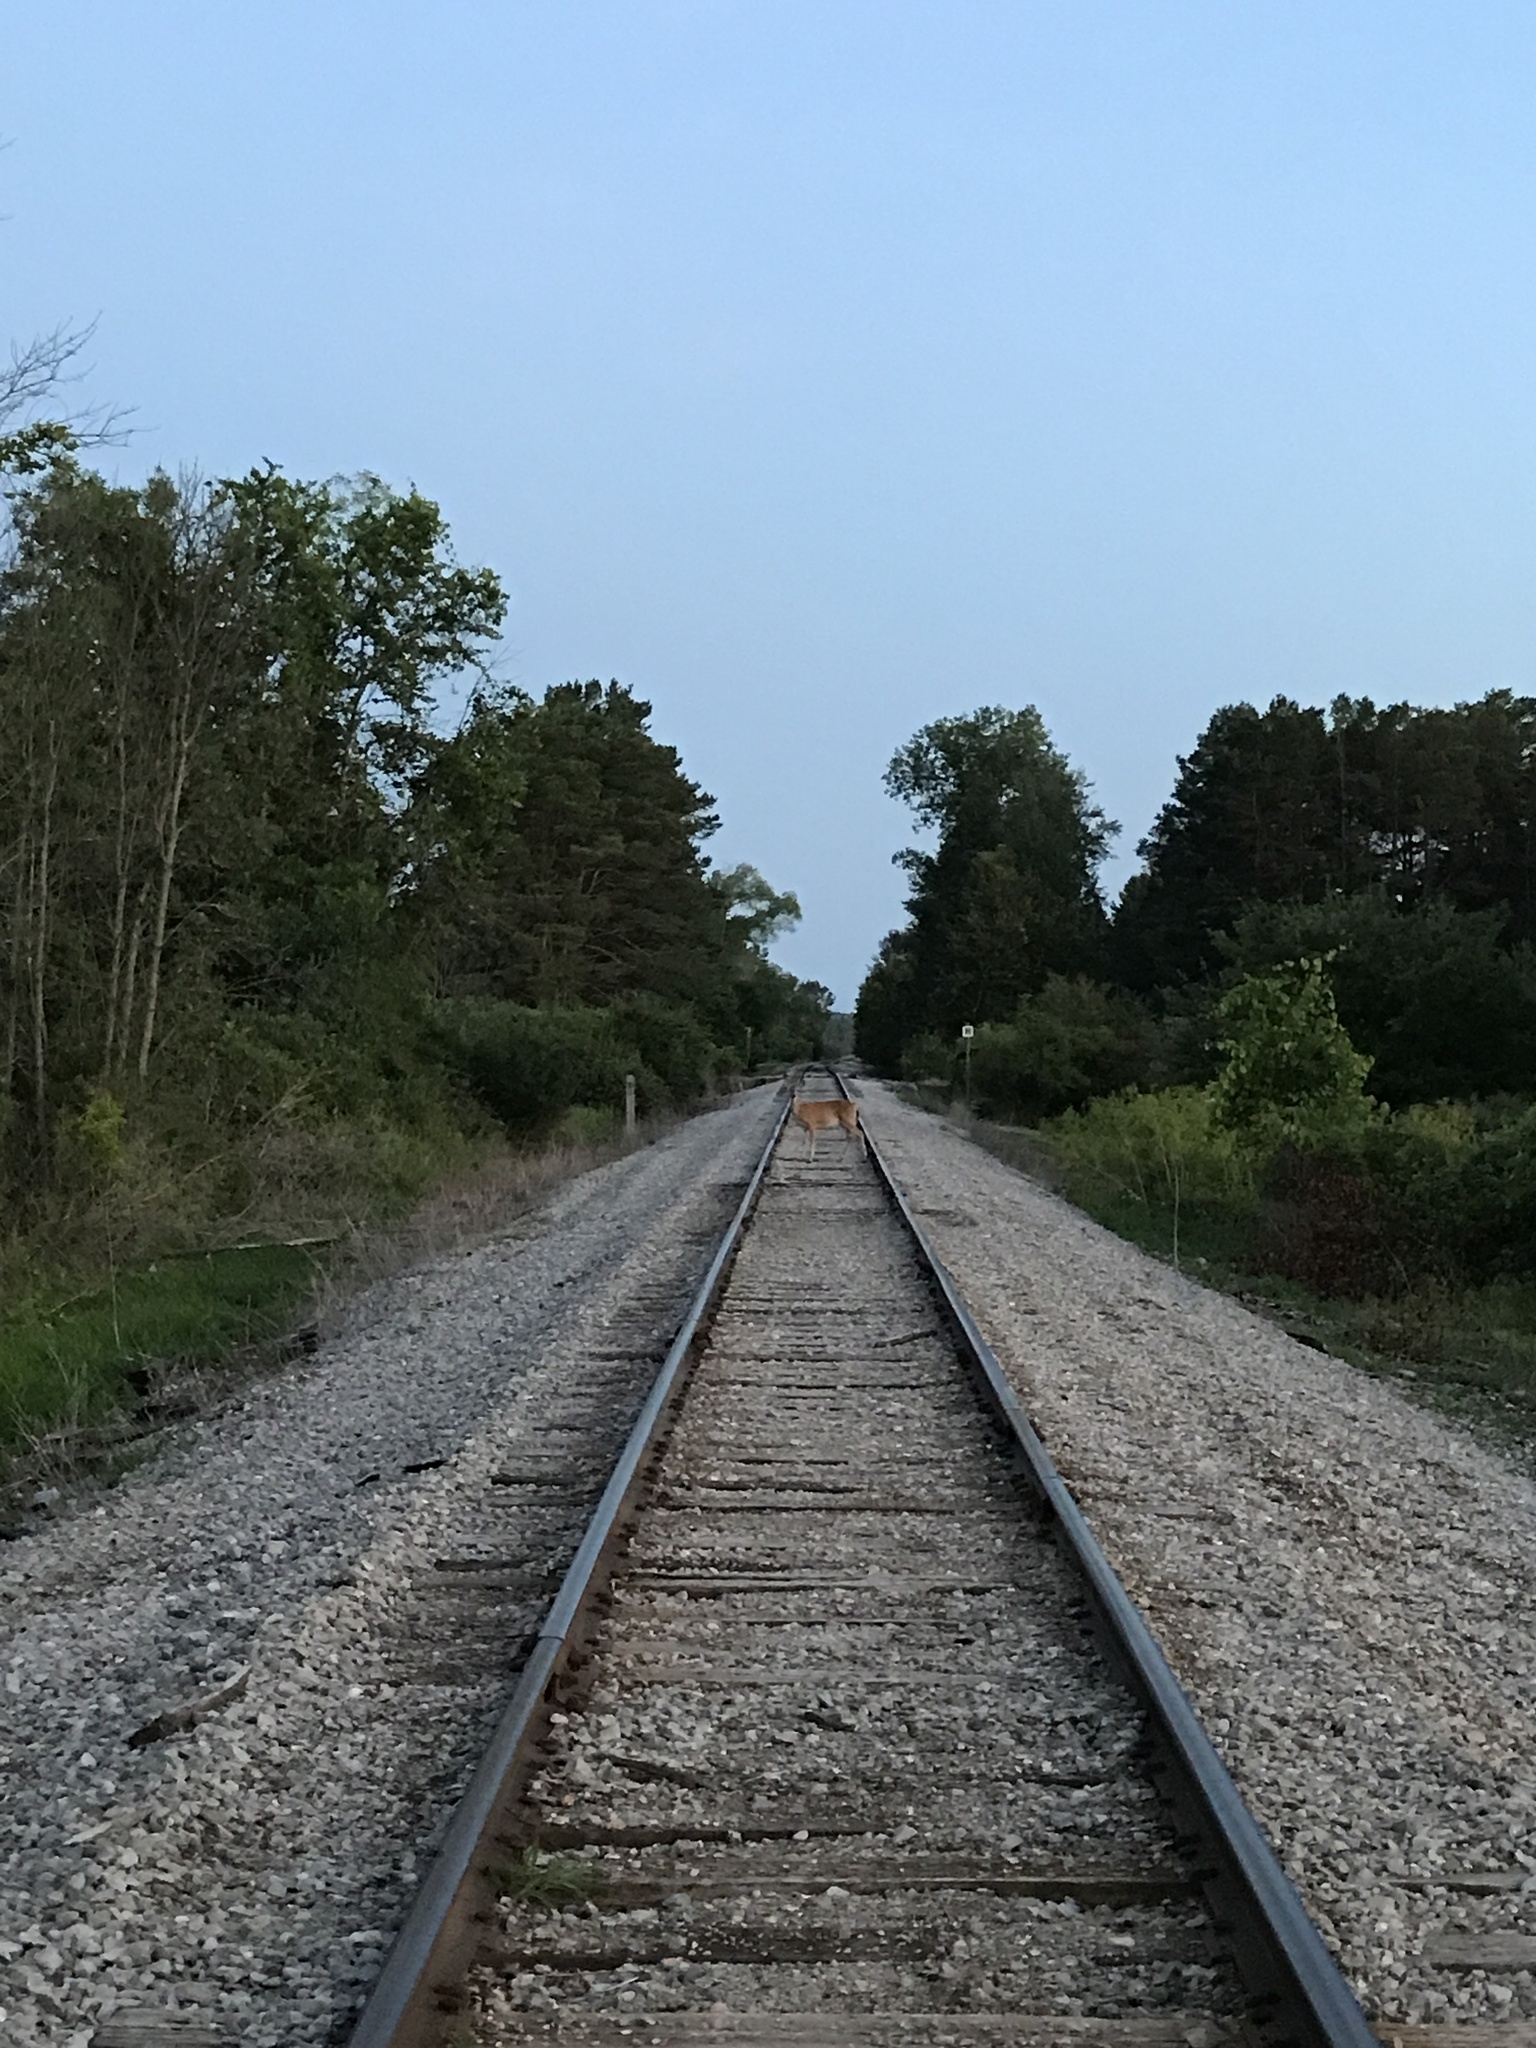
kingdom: Animalia
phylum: Chordata
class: Mammalia
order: Artiodactyla
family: Cervidae
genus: Odocoileus
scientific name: Odocoileus virginianus
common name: White-tailed deer
